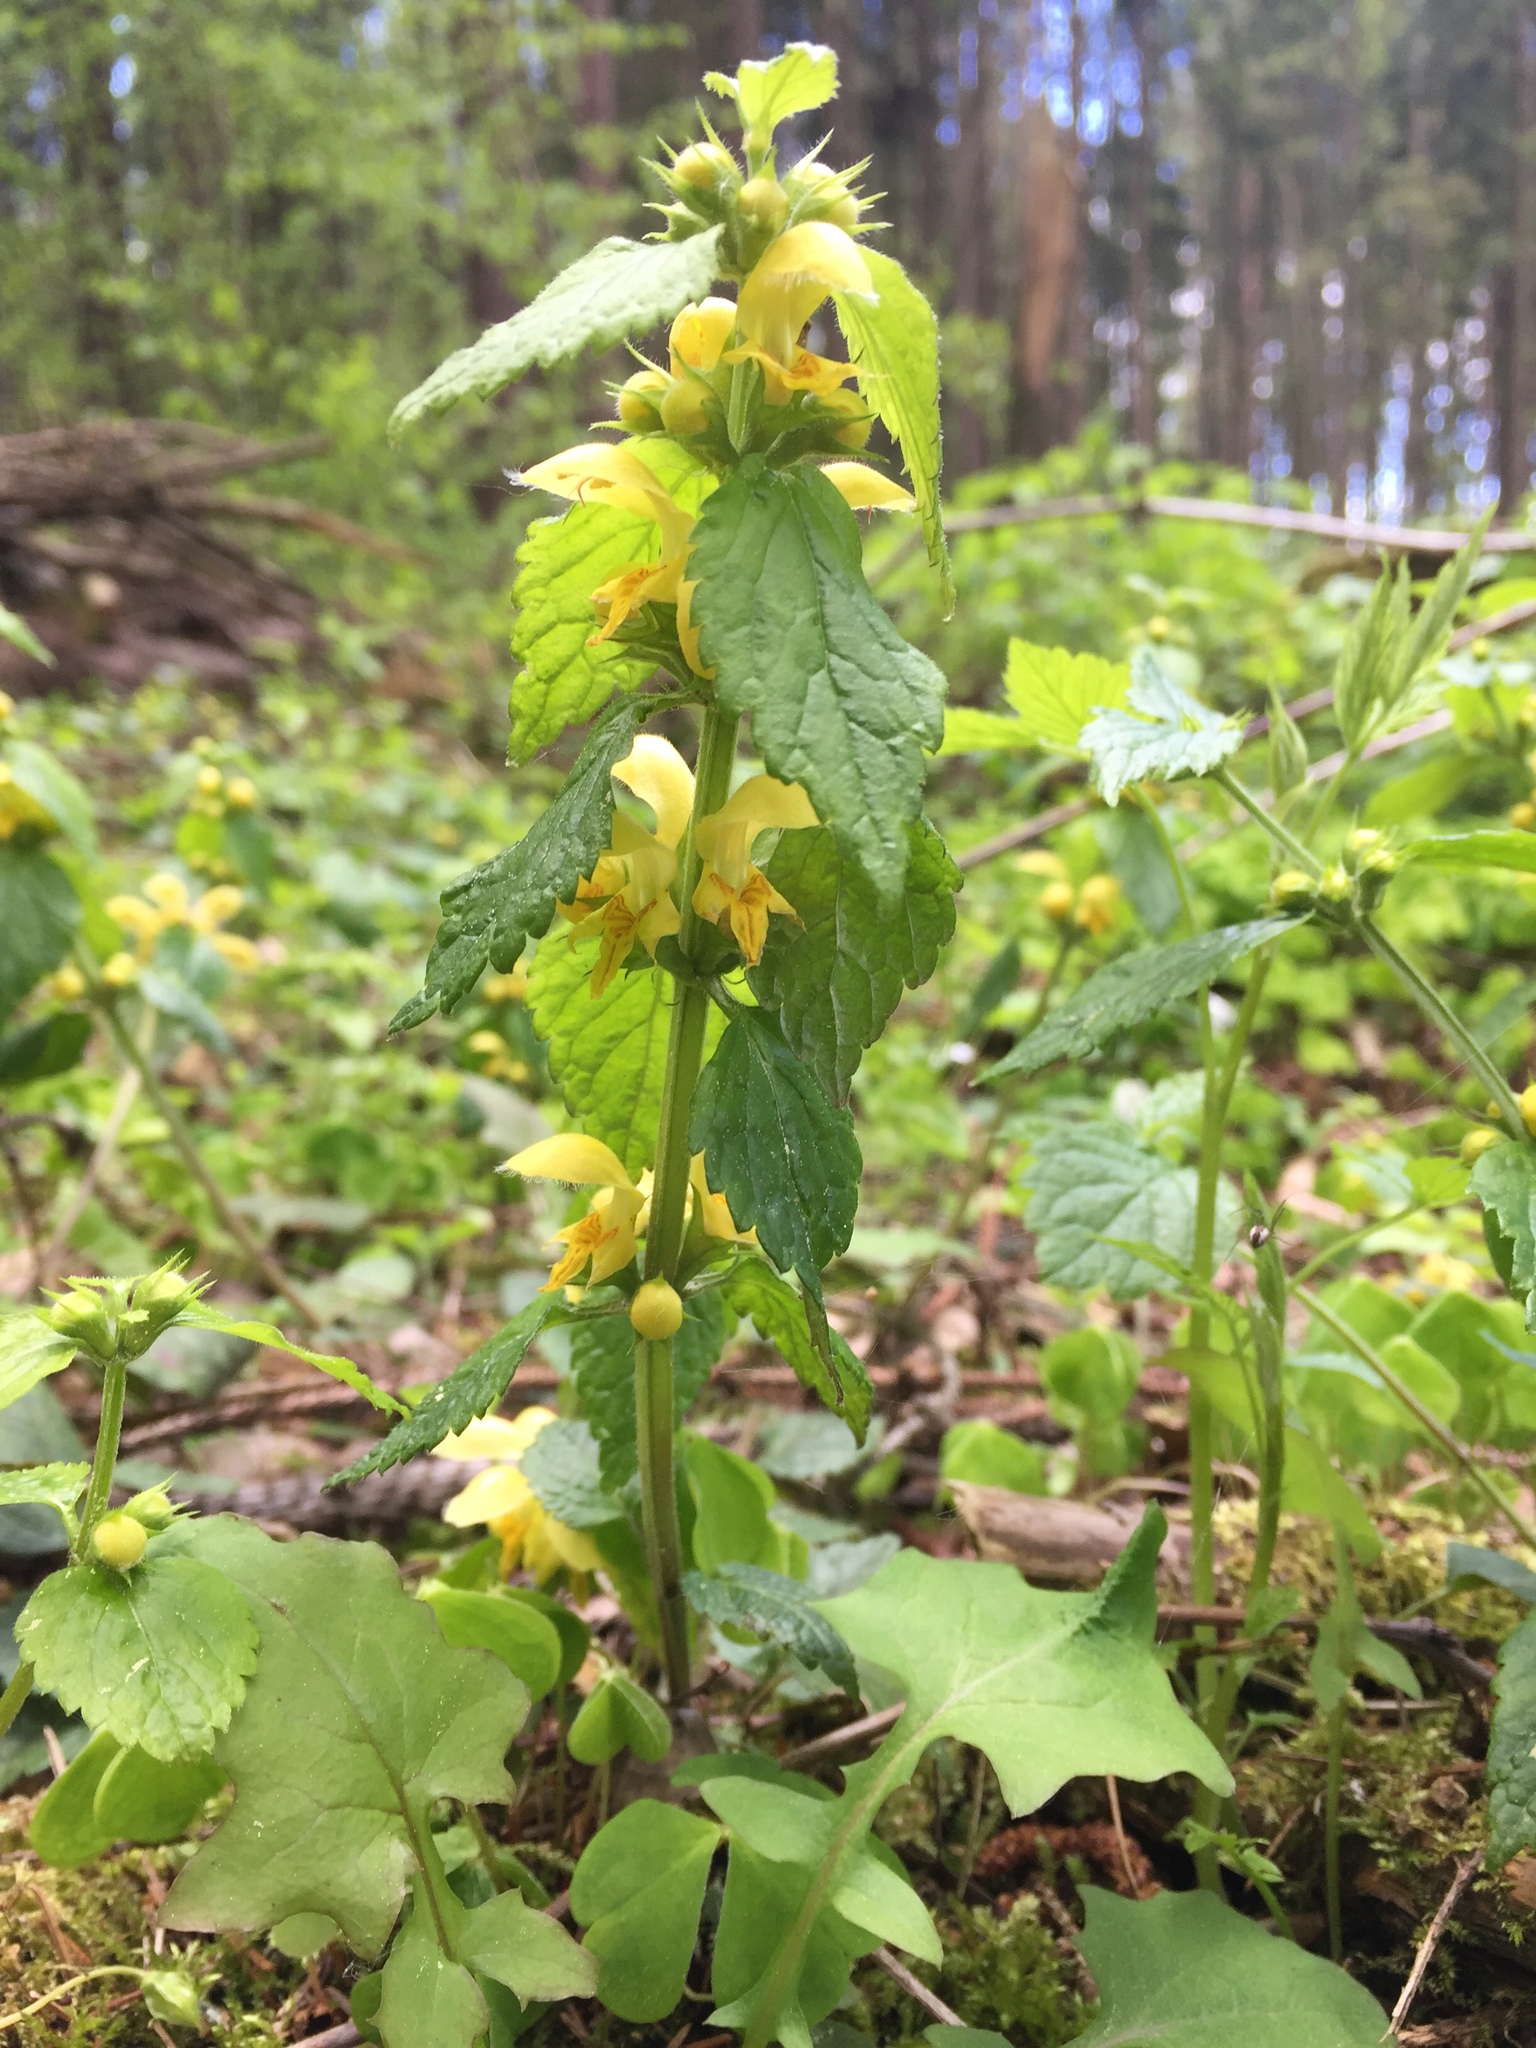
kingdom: Plantae
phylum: Tracheophyta
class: Magnoliopsida
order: Lamiales
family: Lamiaceae
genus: Lamium
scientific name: Lamium galeobdolon
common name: Yellow archangel
